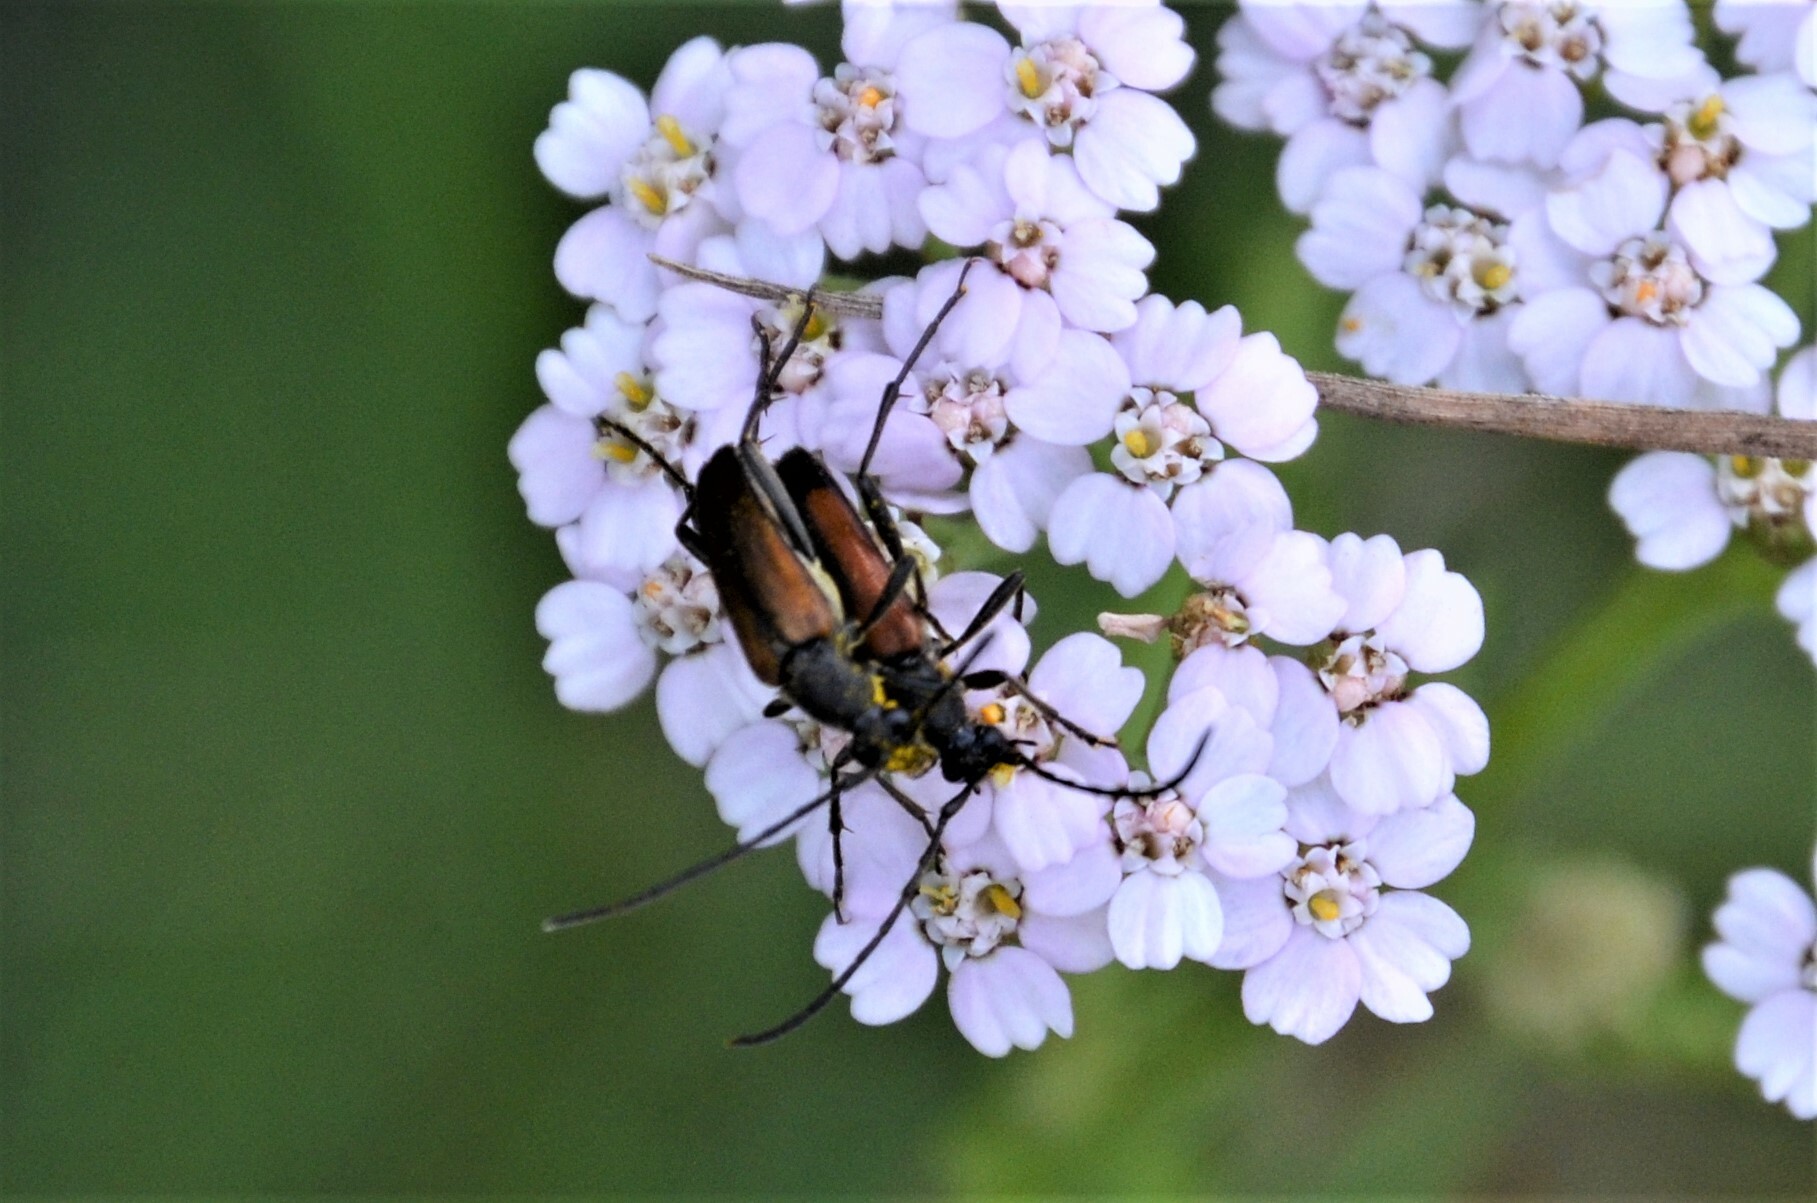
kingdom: Animalia
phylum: Arthropoda
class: Insecta
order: Coleoptera
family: Cerambycidae
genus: Anastrangalia
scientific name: Anastrangalia dubia
